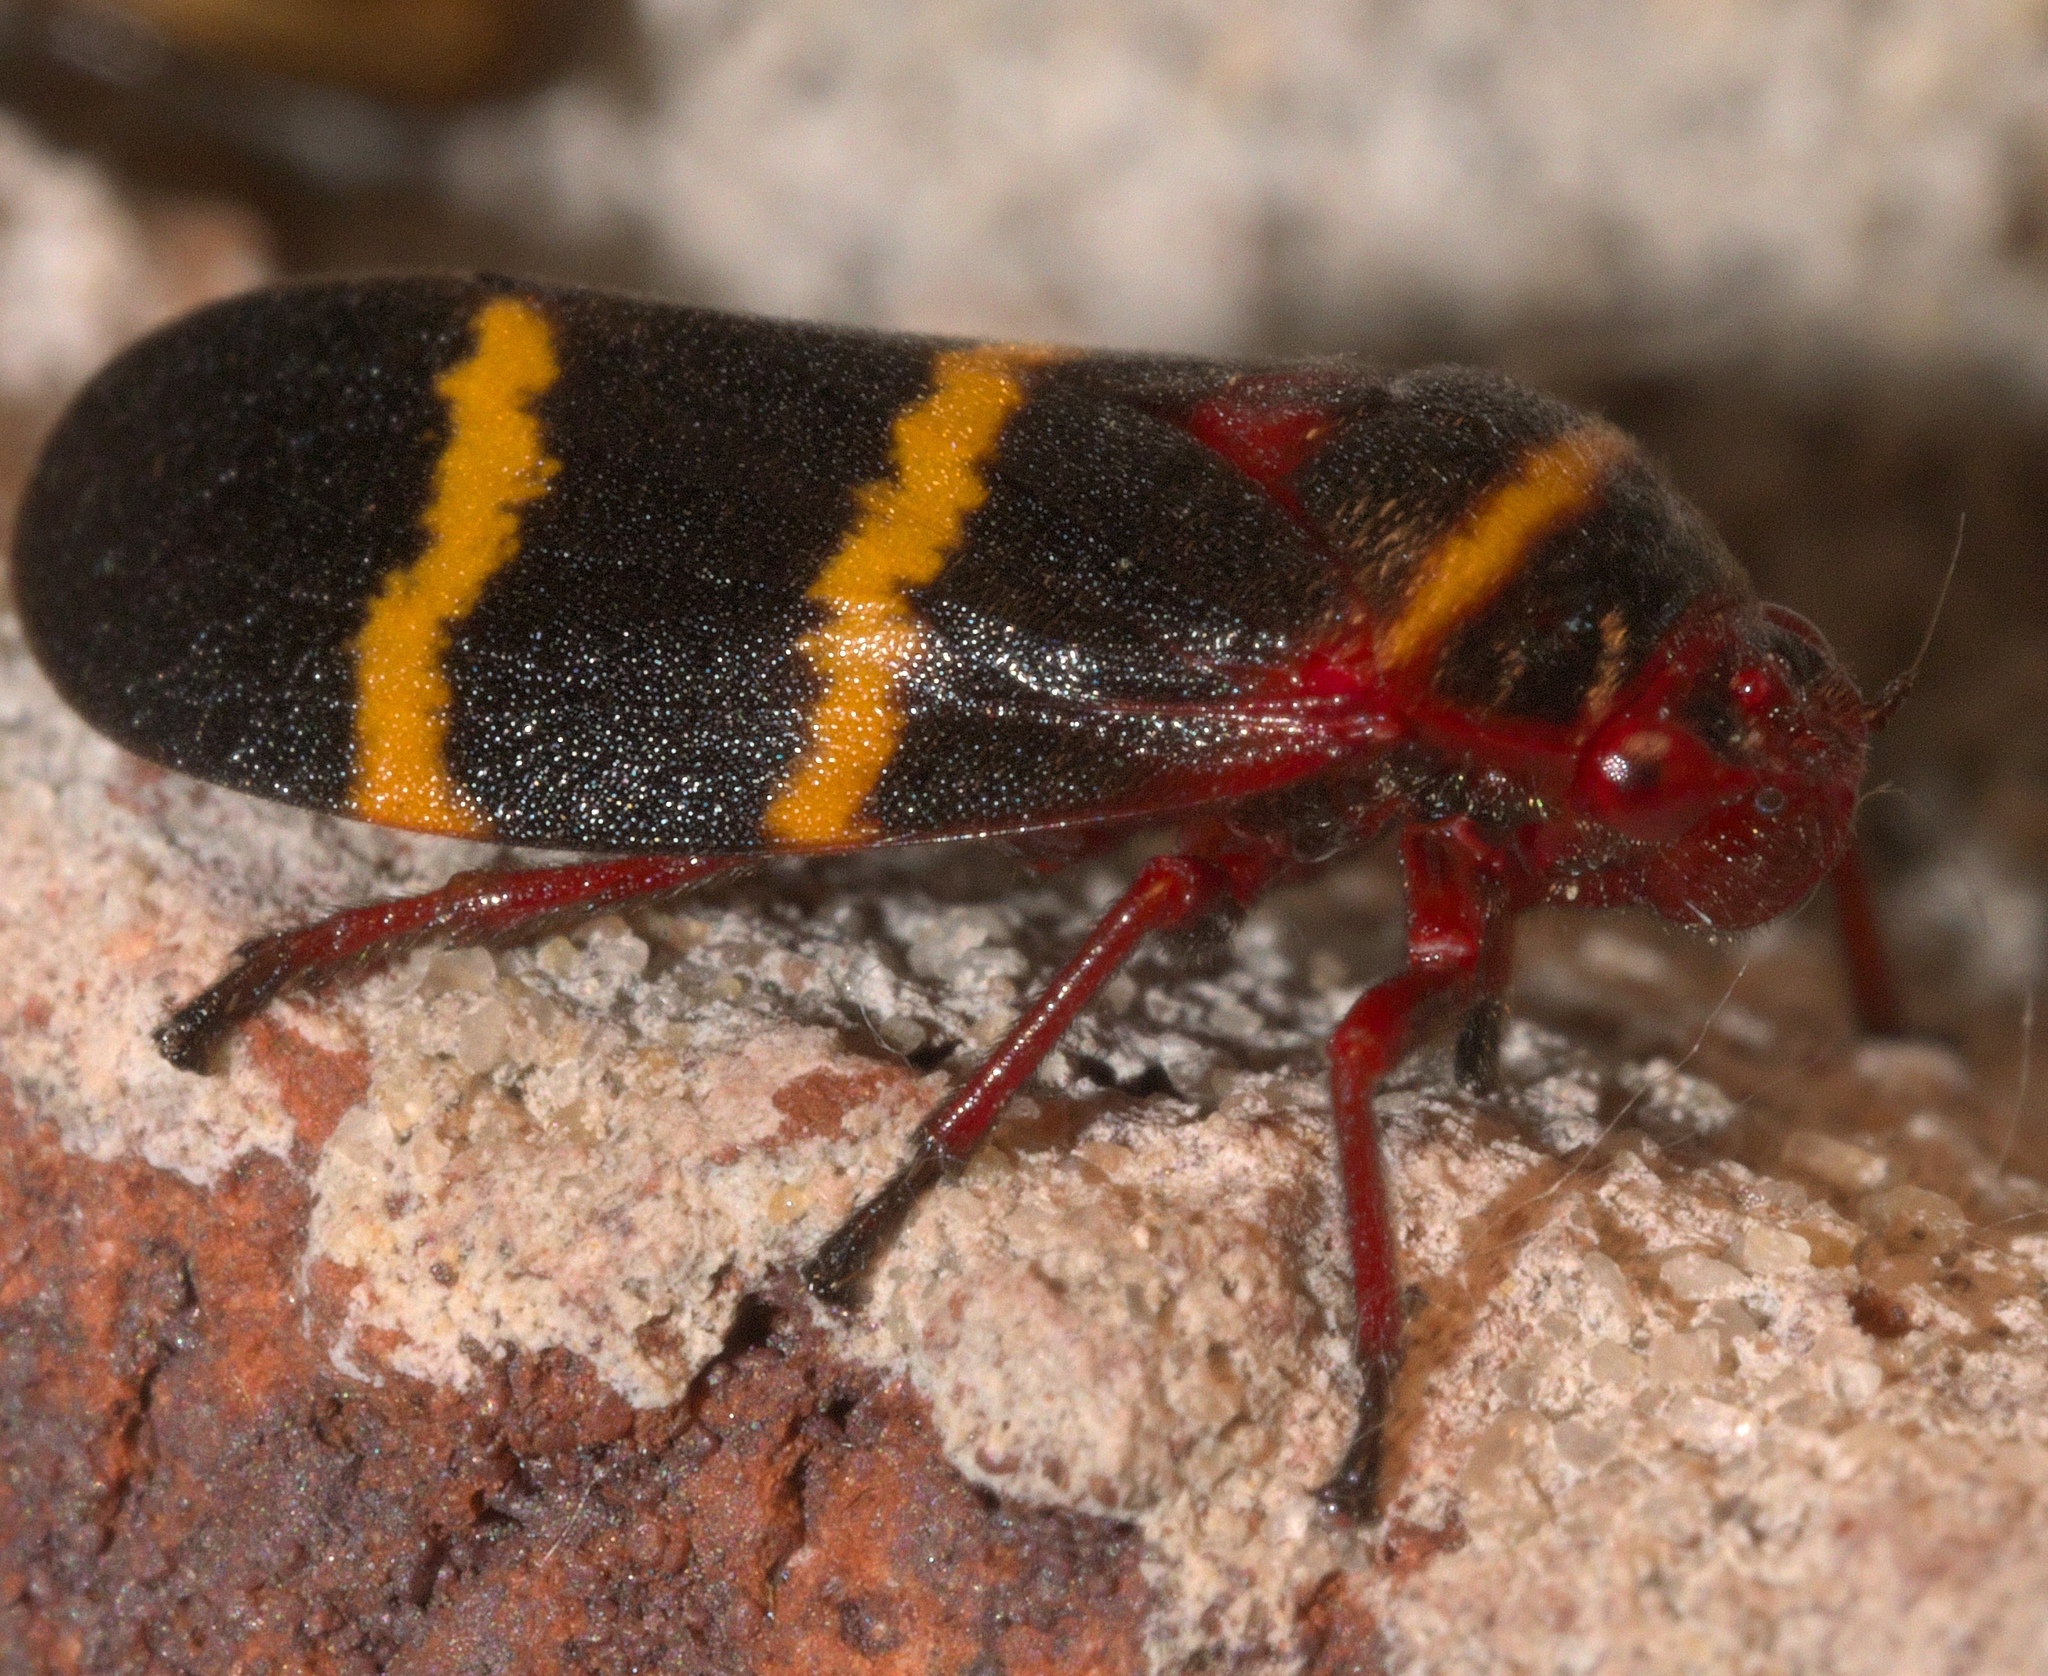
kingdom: Animalia
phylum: Arthropoda
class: Insecta
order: Hemiptera
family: Cercopidae
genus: Prosapia
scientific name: Prosapia bicincta
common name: Twolined spittlebug
